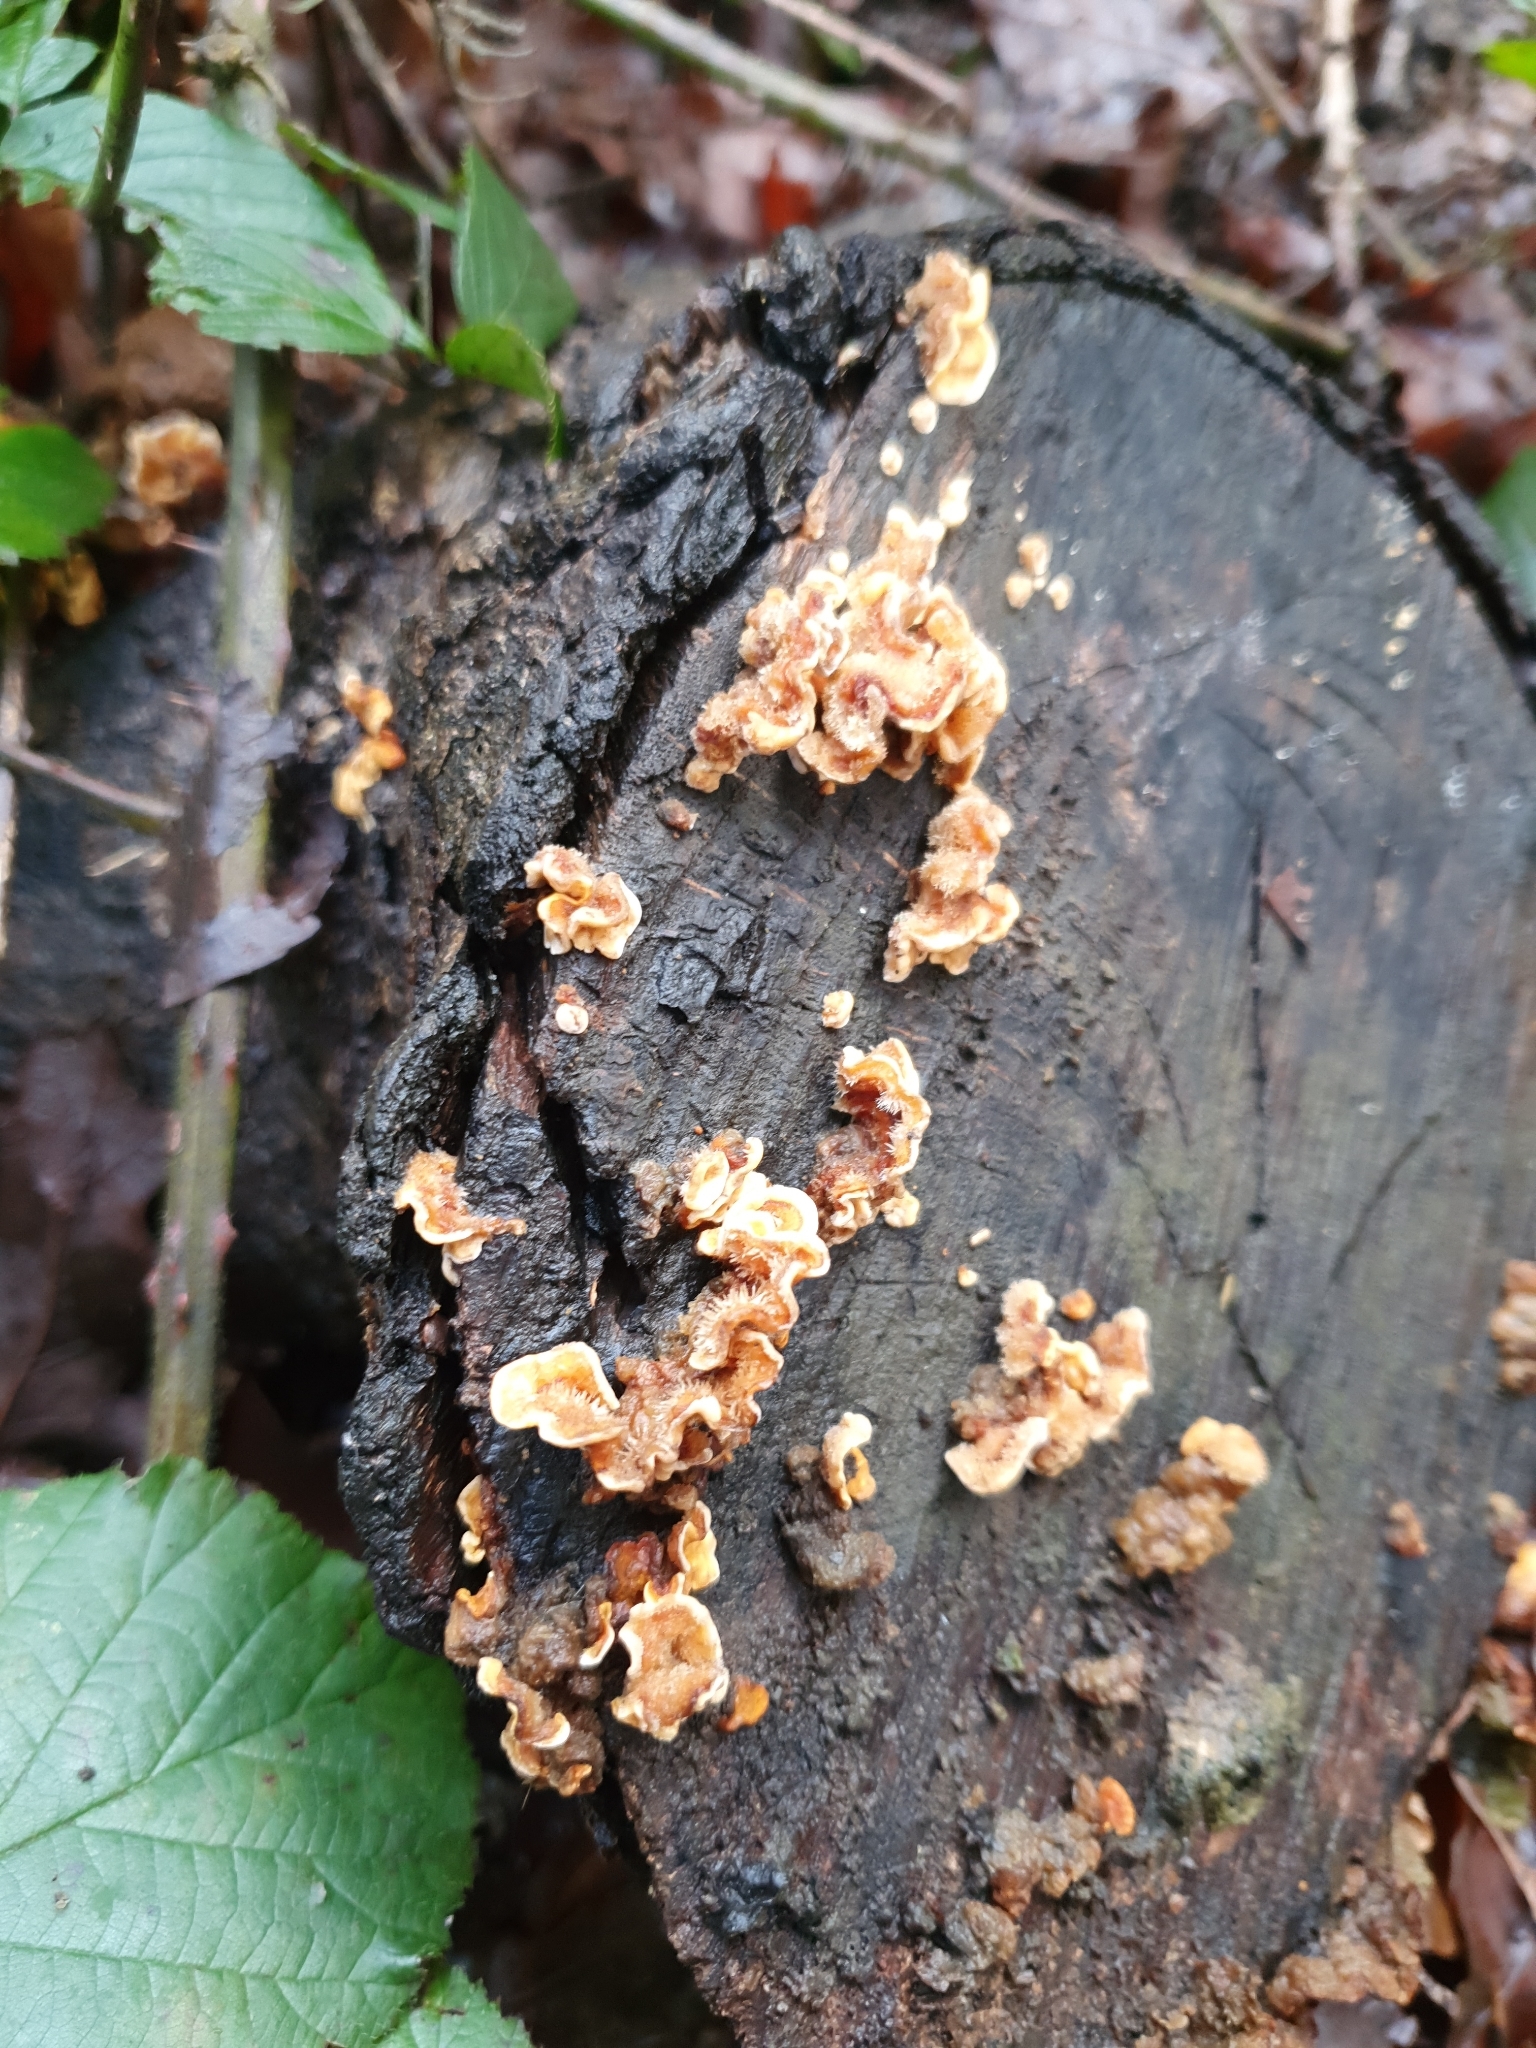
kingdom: Fungi
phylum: Basidiomycota
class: Agaricomycetes
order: Russulales
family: Stereaceae
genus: Stereum
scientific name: Stereum hirsutum
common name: Hairy curtain crust
